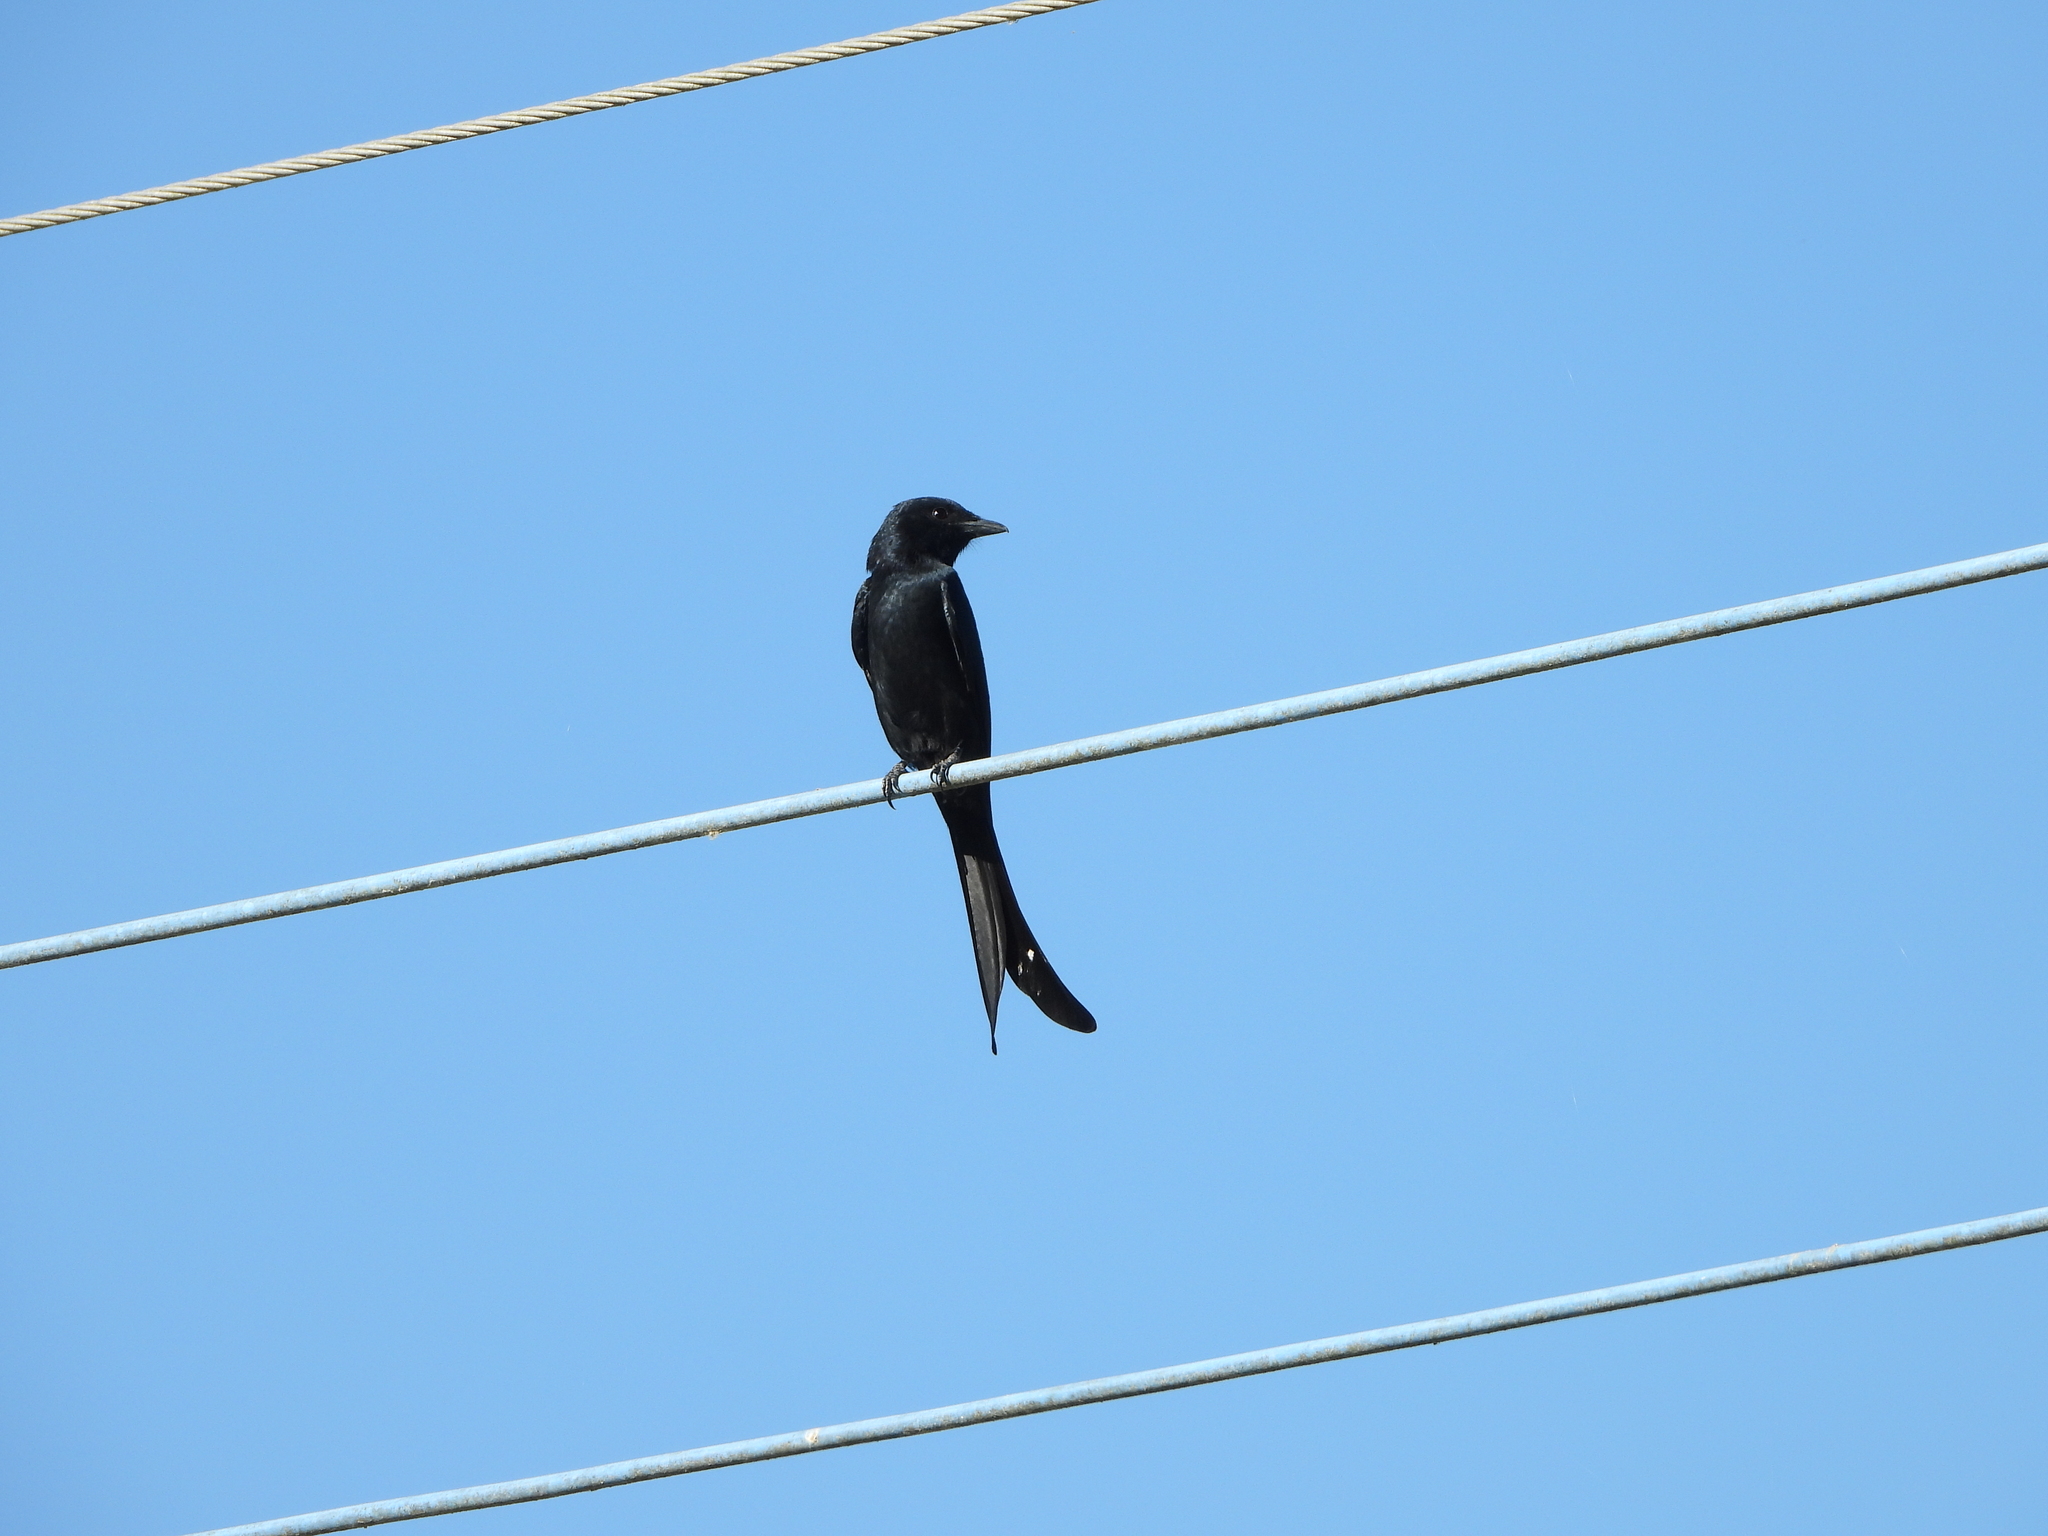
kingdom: Animalia
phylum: Chordata
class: Aves
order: Passeriformes
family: Dicruridae
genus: Dicrurus
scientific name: Dicrurus macrocercus
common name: Black drongo
